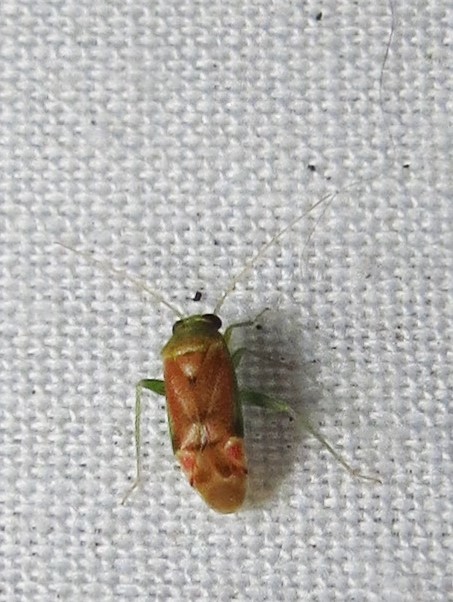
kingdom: Animalia
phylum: Arthropoda
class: Insecta
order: Hemiptera
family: Miridae
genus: Dichrooscytus
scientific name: Dichrooscytus
